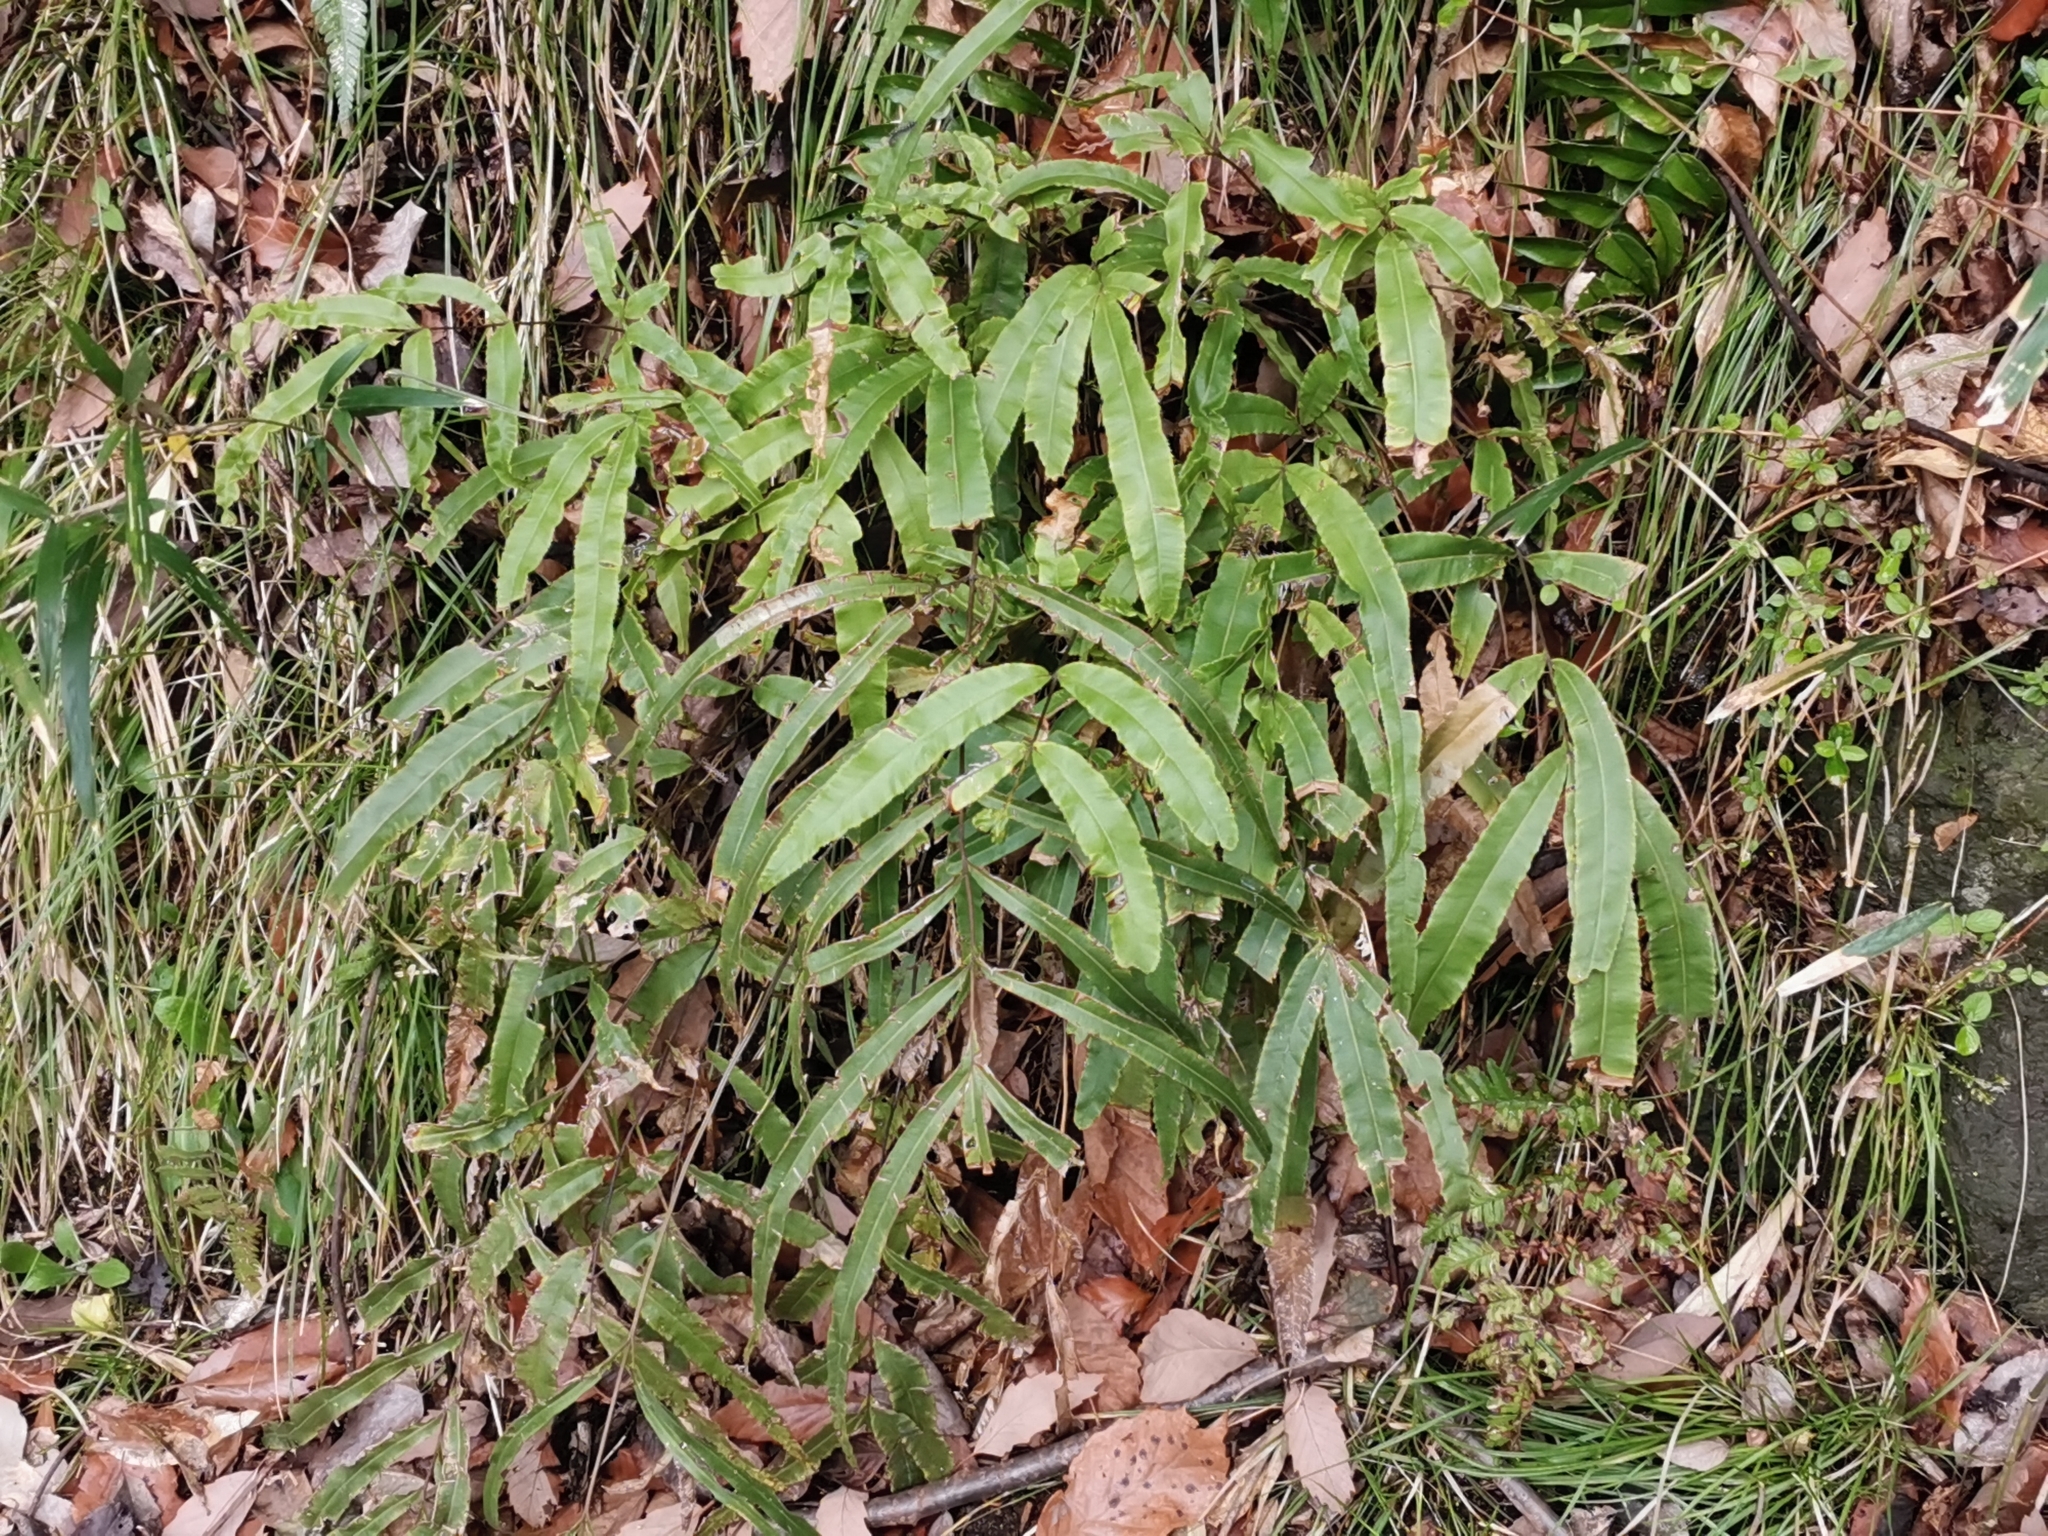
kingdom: Plantae
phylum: Tracheophyta
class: Polypodiopsida
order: Polypodiales
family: Pteridaceae
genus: Pteris
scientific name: Pteris cretica
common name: Ribbon fern
